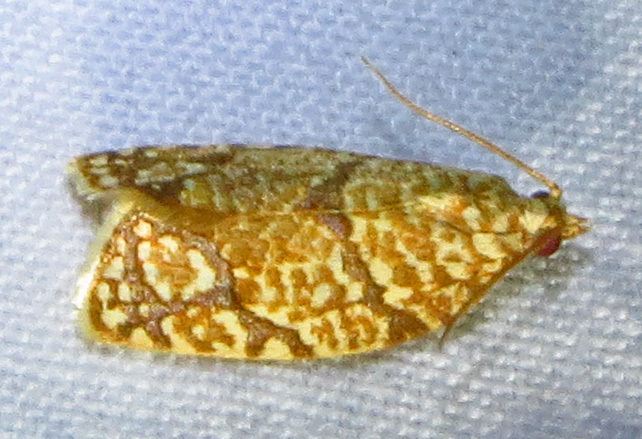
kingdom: Animalia
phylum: Arthropoda
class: Insecta
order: Lepidoptera
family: Tortricidae
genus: Argyrotaenia
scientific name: Argyrotaenia quercifoliana
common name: Yellow-winged oak leafroller moth
